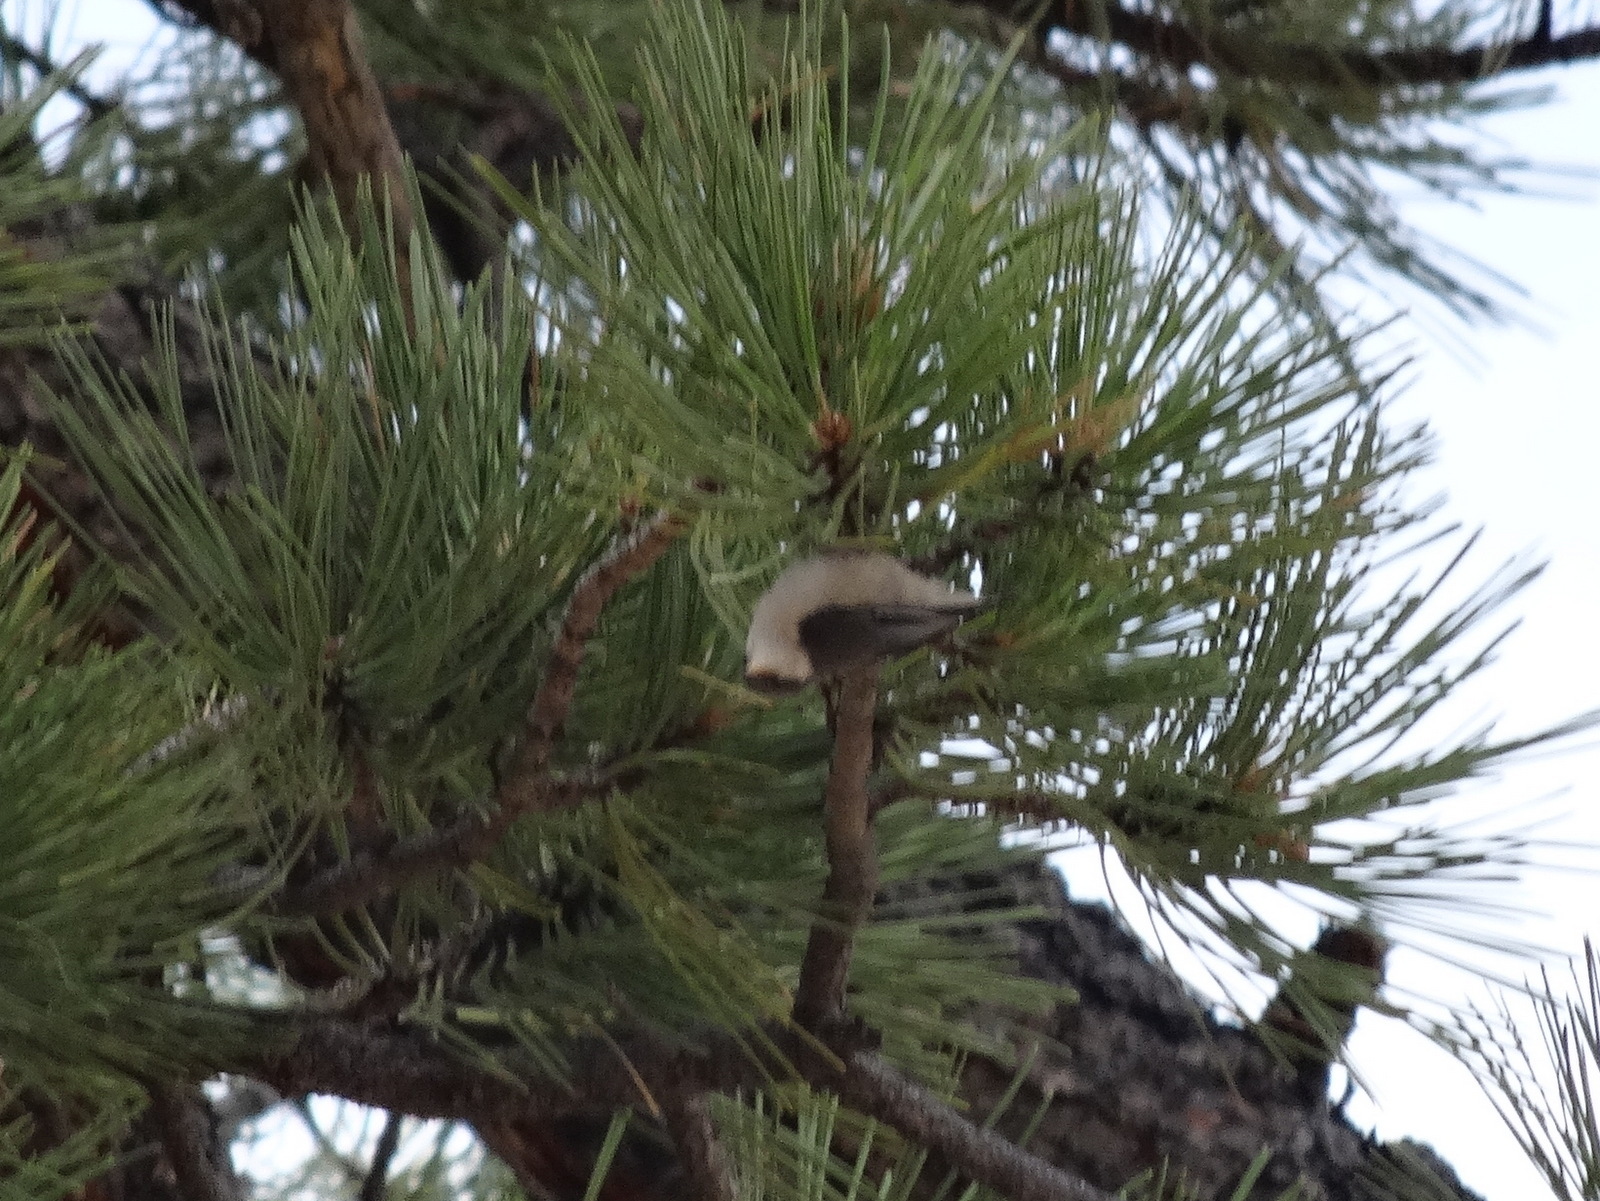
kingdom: Animalia
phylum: Chordata
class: Aves
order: Passeriformes
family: Sittidae
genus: Sitta
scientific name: Sitta pygmaea
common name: Pygmy nuthatch
